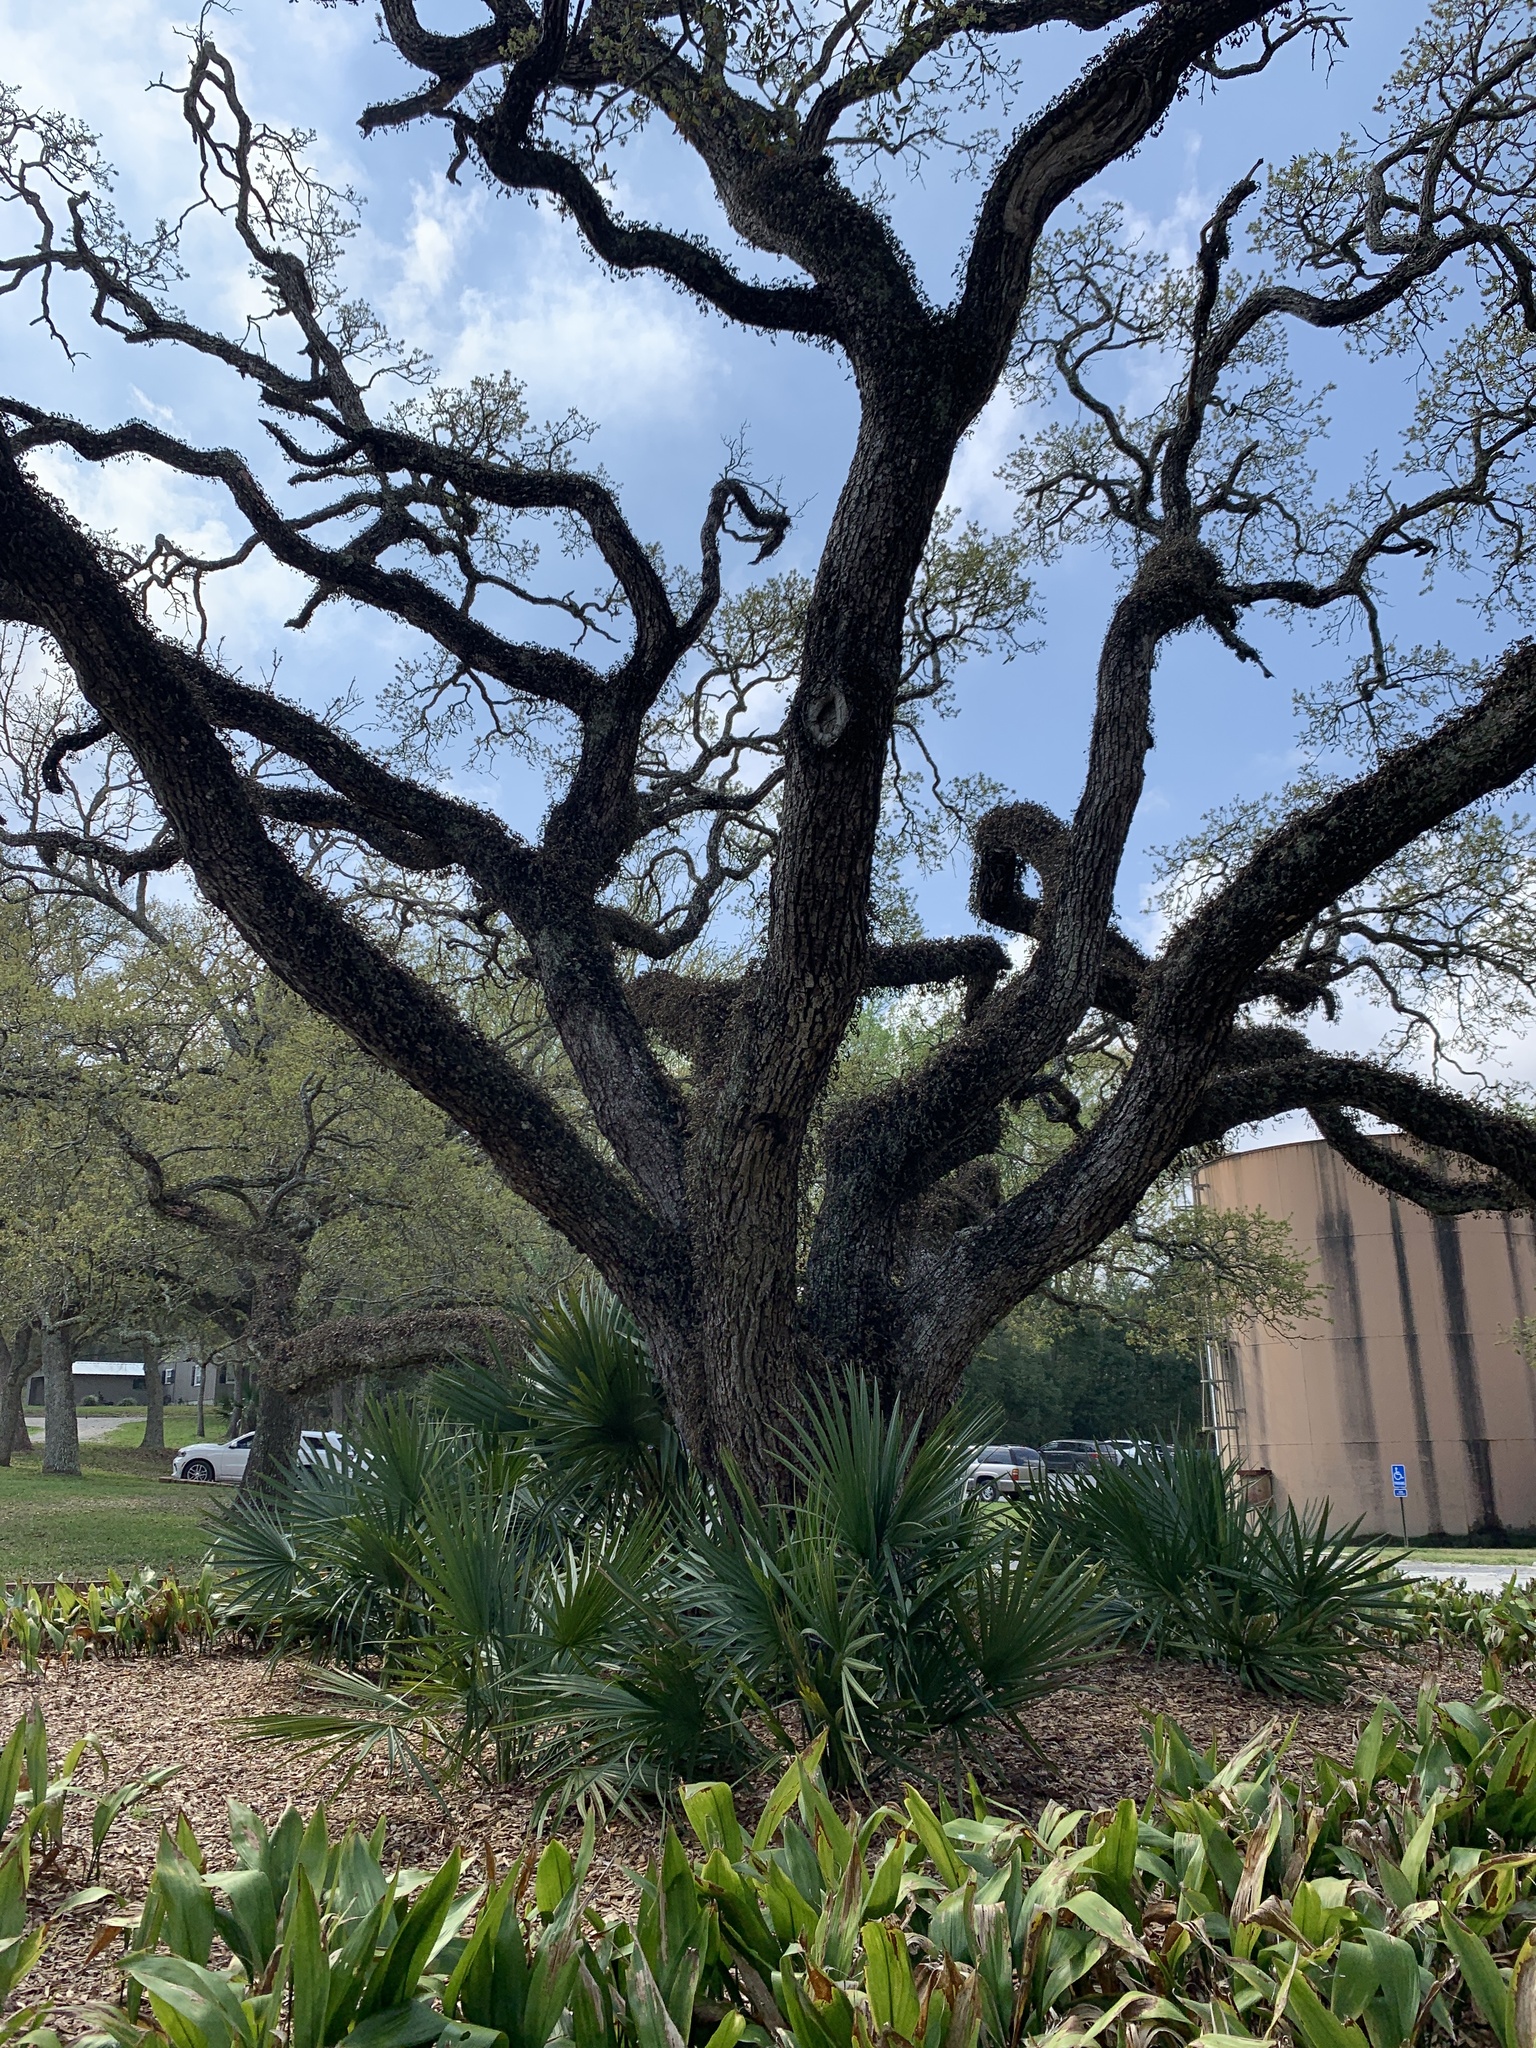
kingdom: Plantae
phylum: Tracheophyta
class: Magnoliopsida
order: Fagales
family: Fagaceae
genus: Quercus
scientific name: Quercus virginiana
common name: Southern live oak
